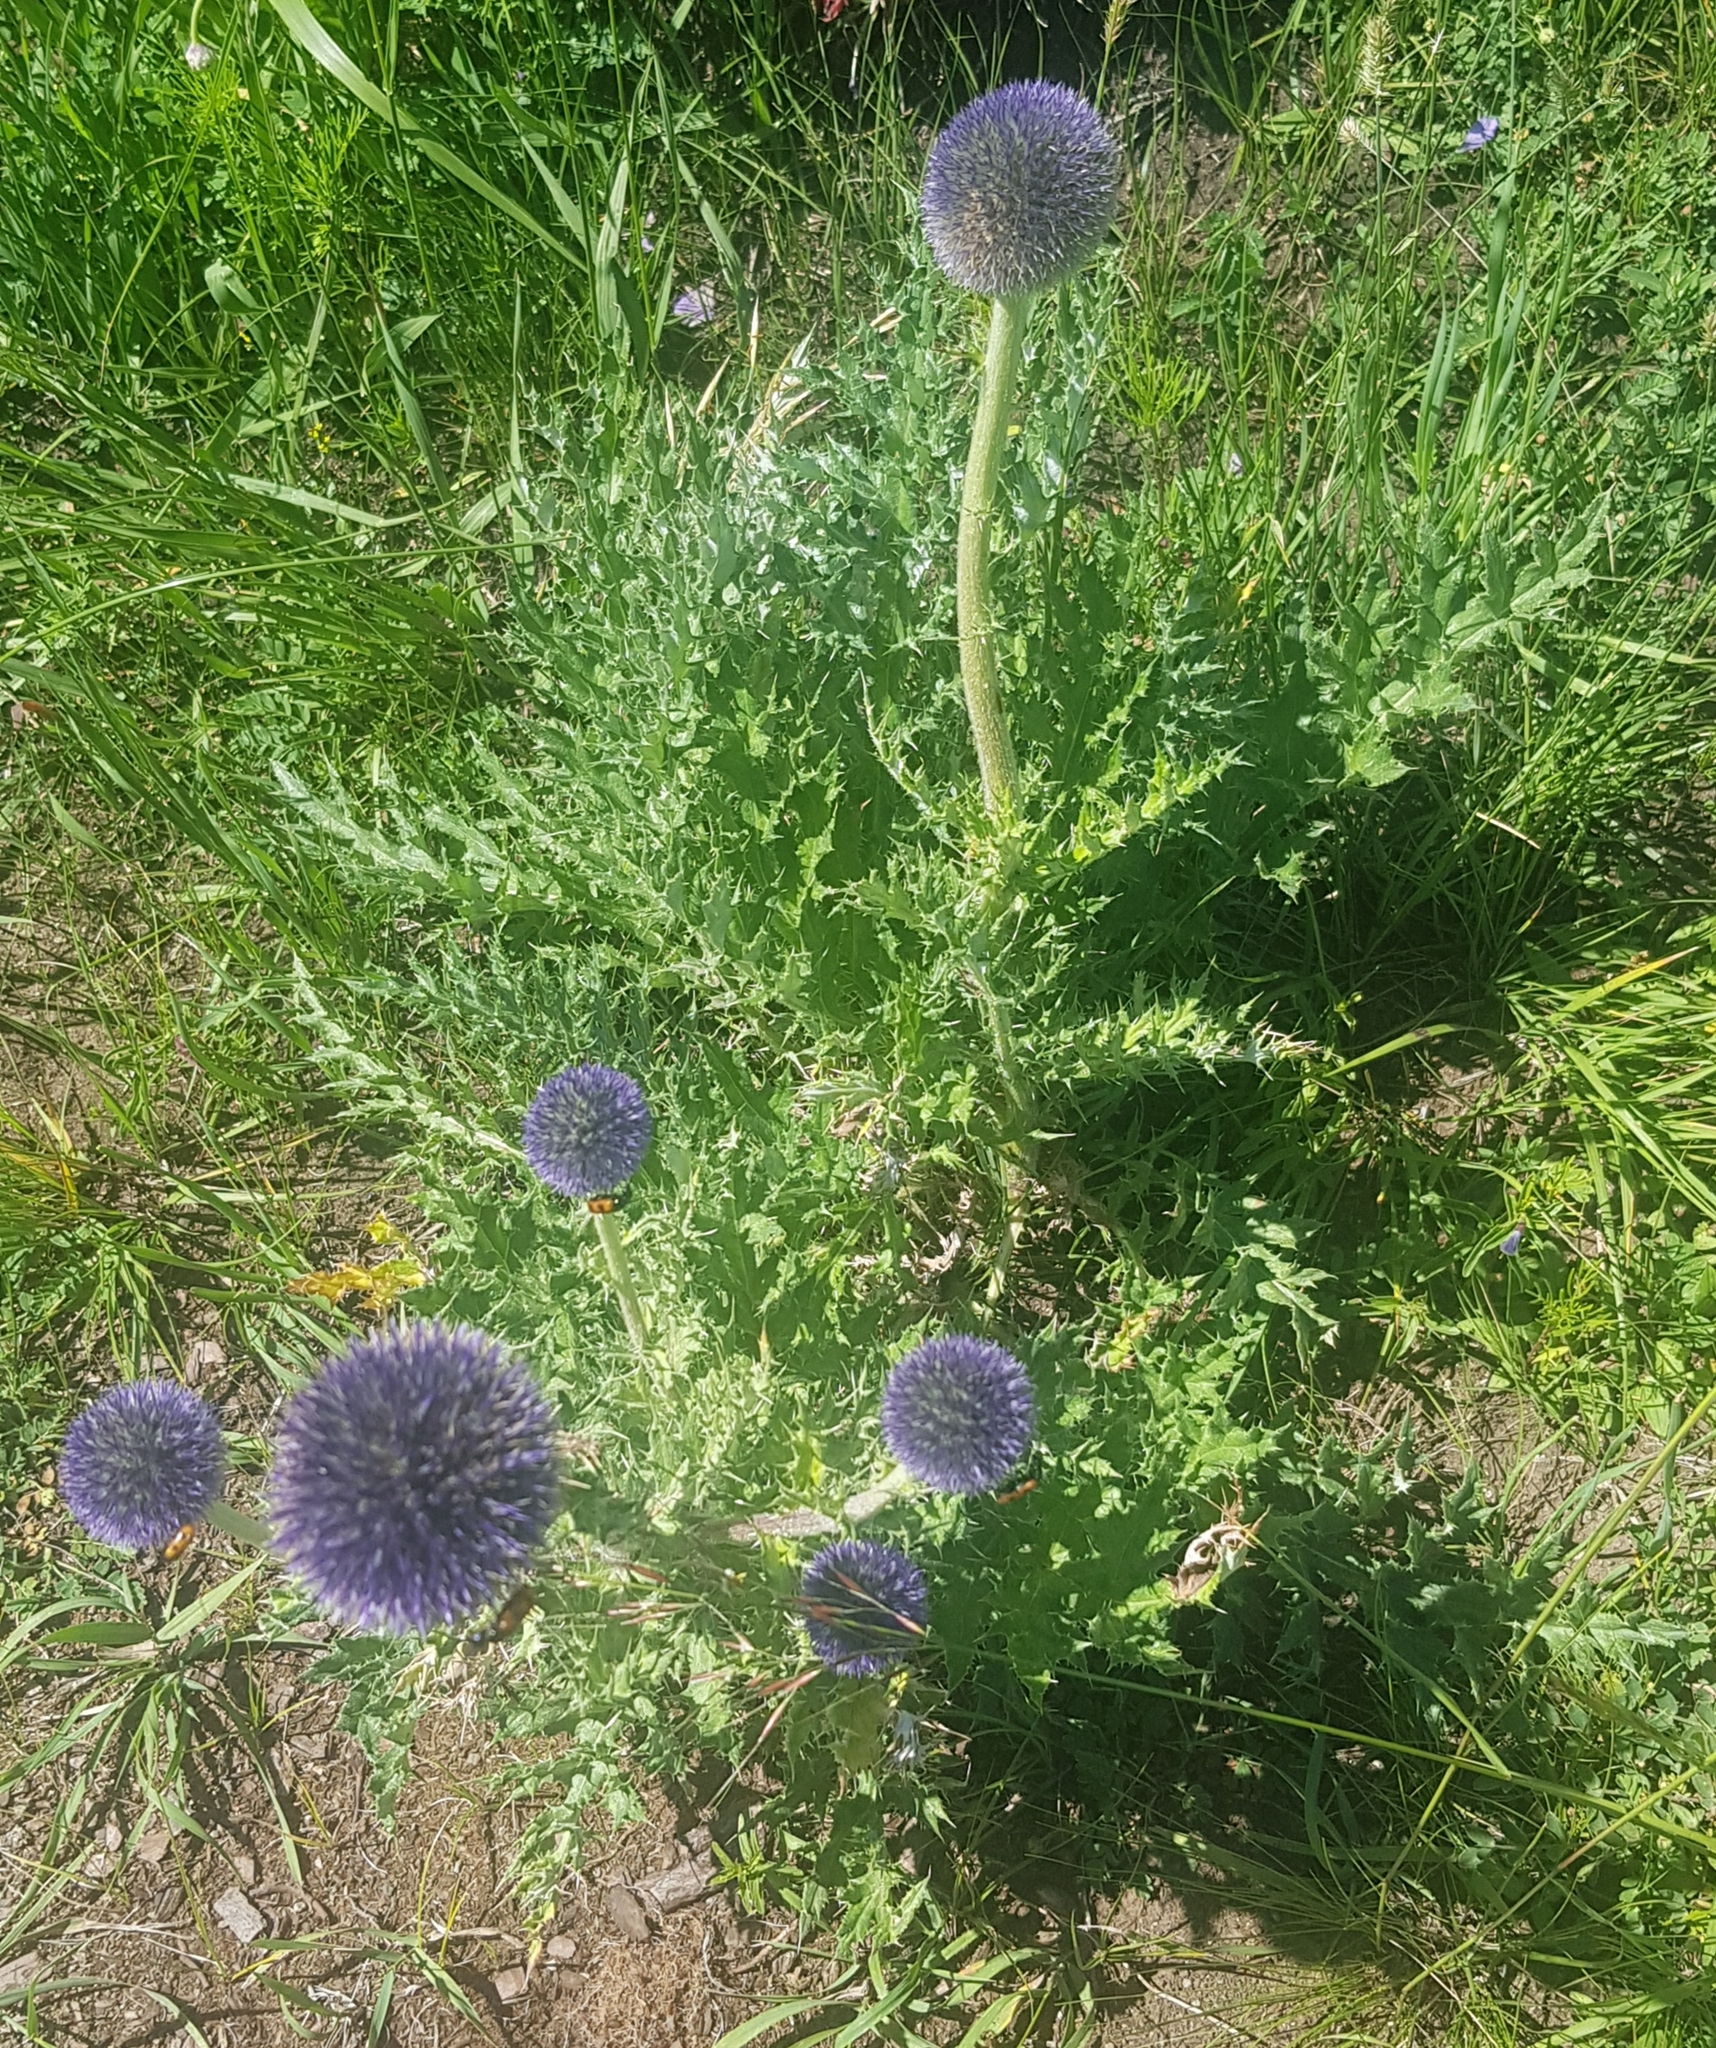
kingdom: Plantae
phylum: Tracheophyta
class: Magnoliopsida
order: Asterales
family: Asteraceae
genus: Echinops
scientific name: Echinops davuricus
